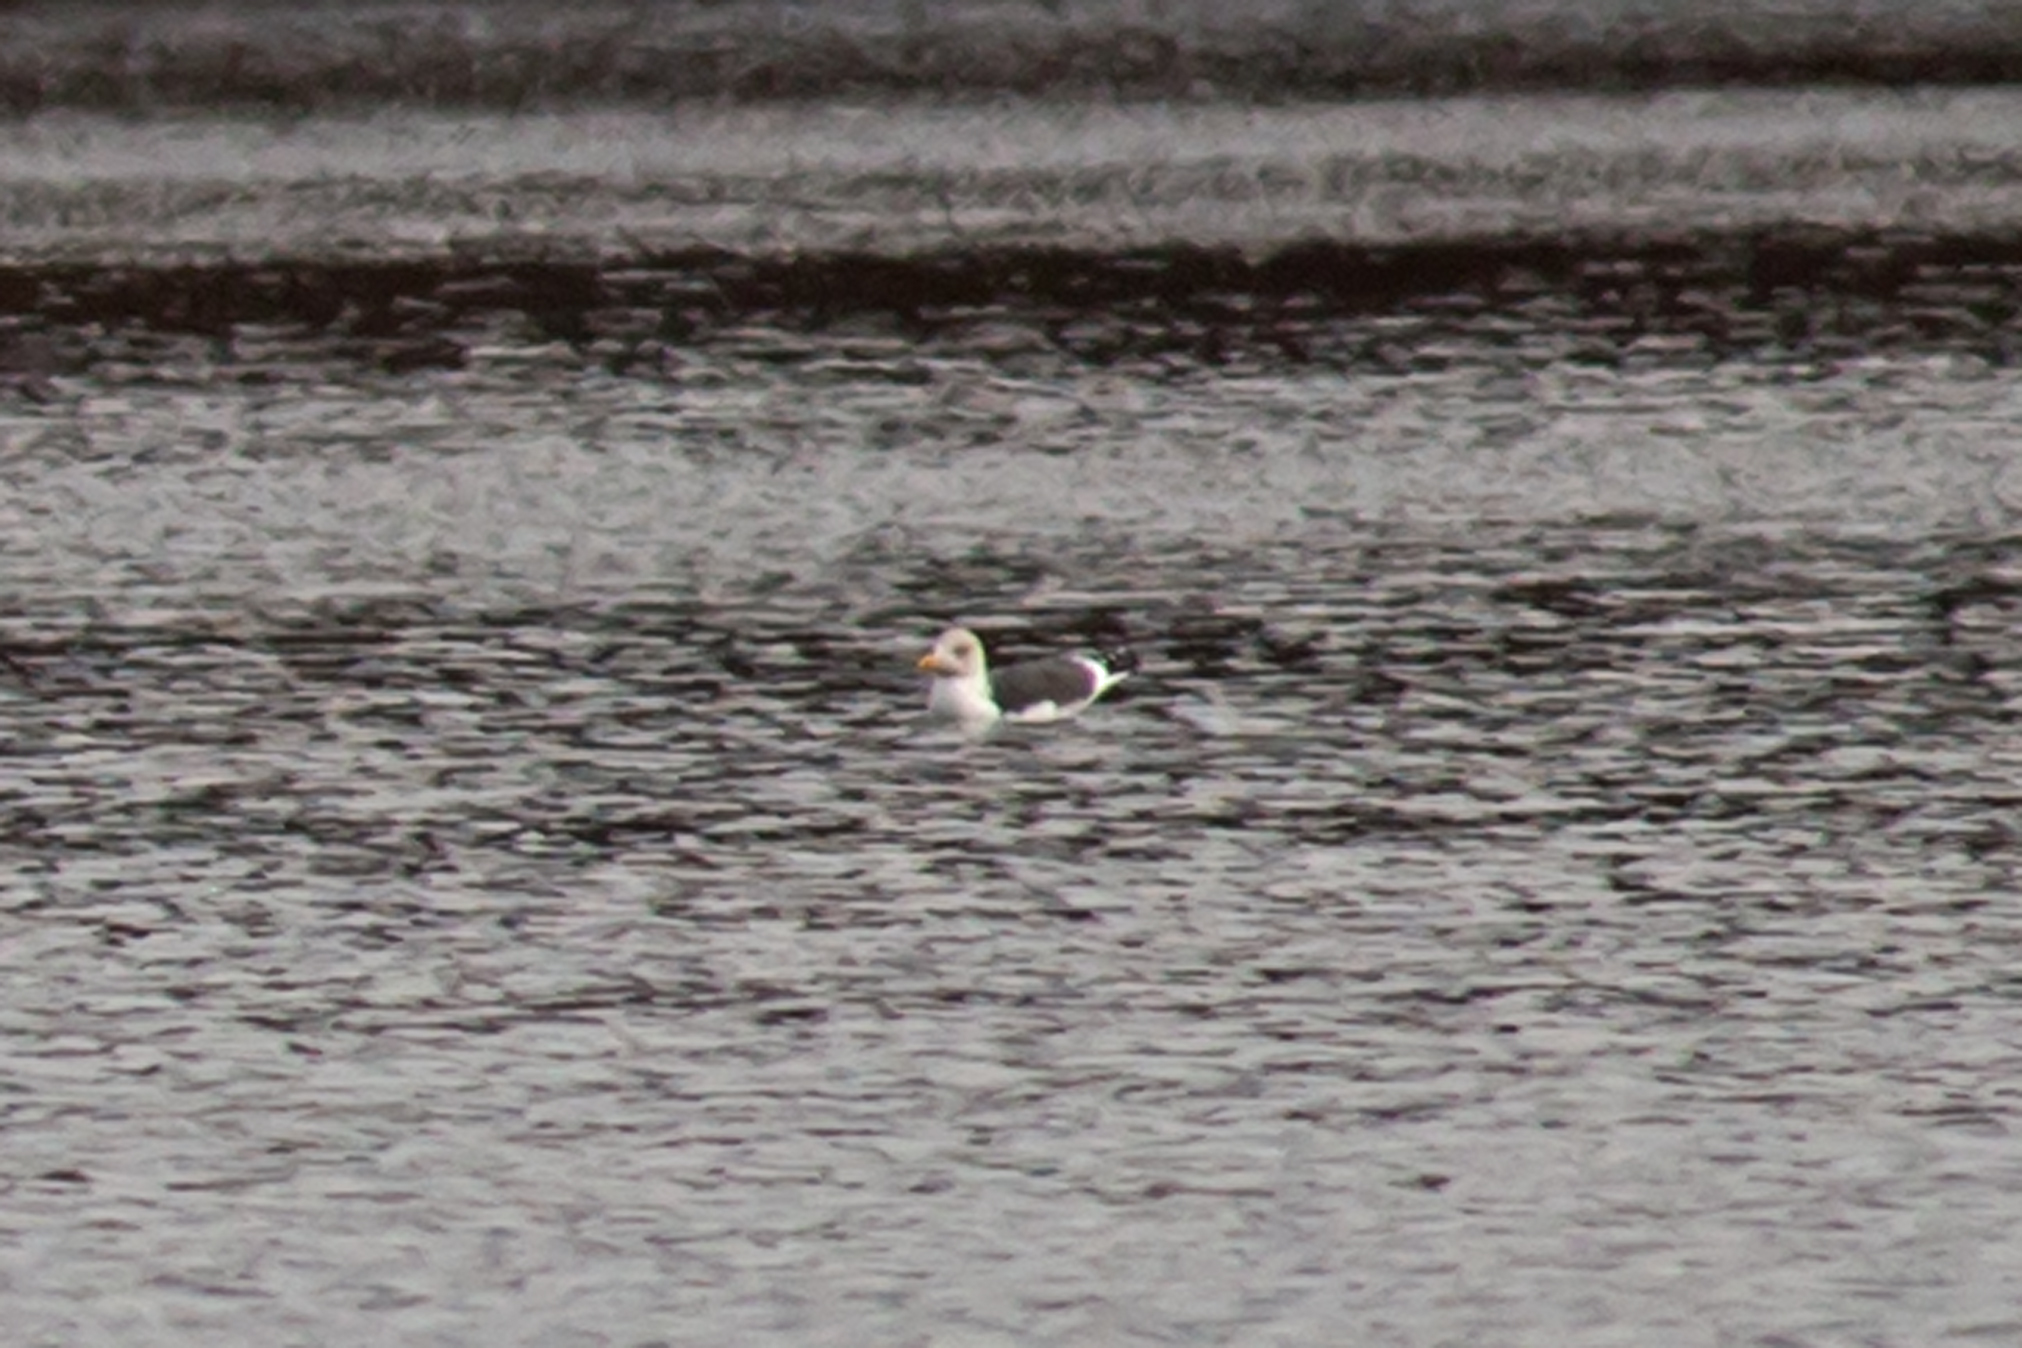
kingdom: Animalia
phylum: Chordata
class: Aves
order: Charadriiformes
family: Laridae
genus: Larus
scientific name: Larus fuscus
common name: Lesser black-backed gull
